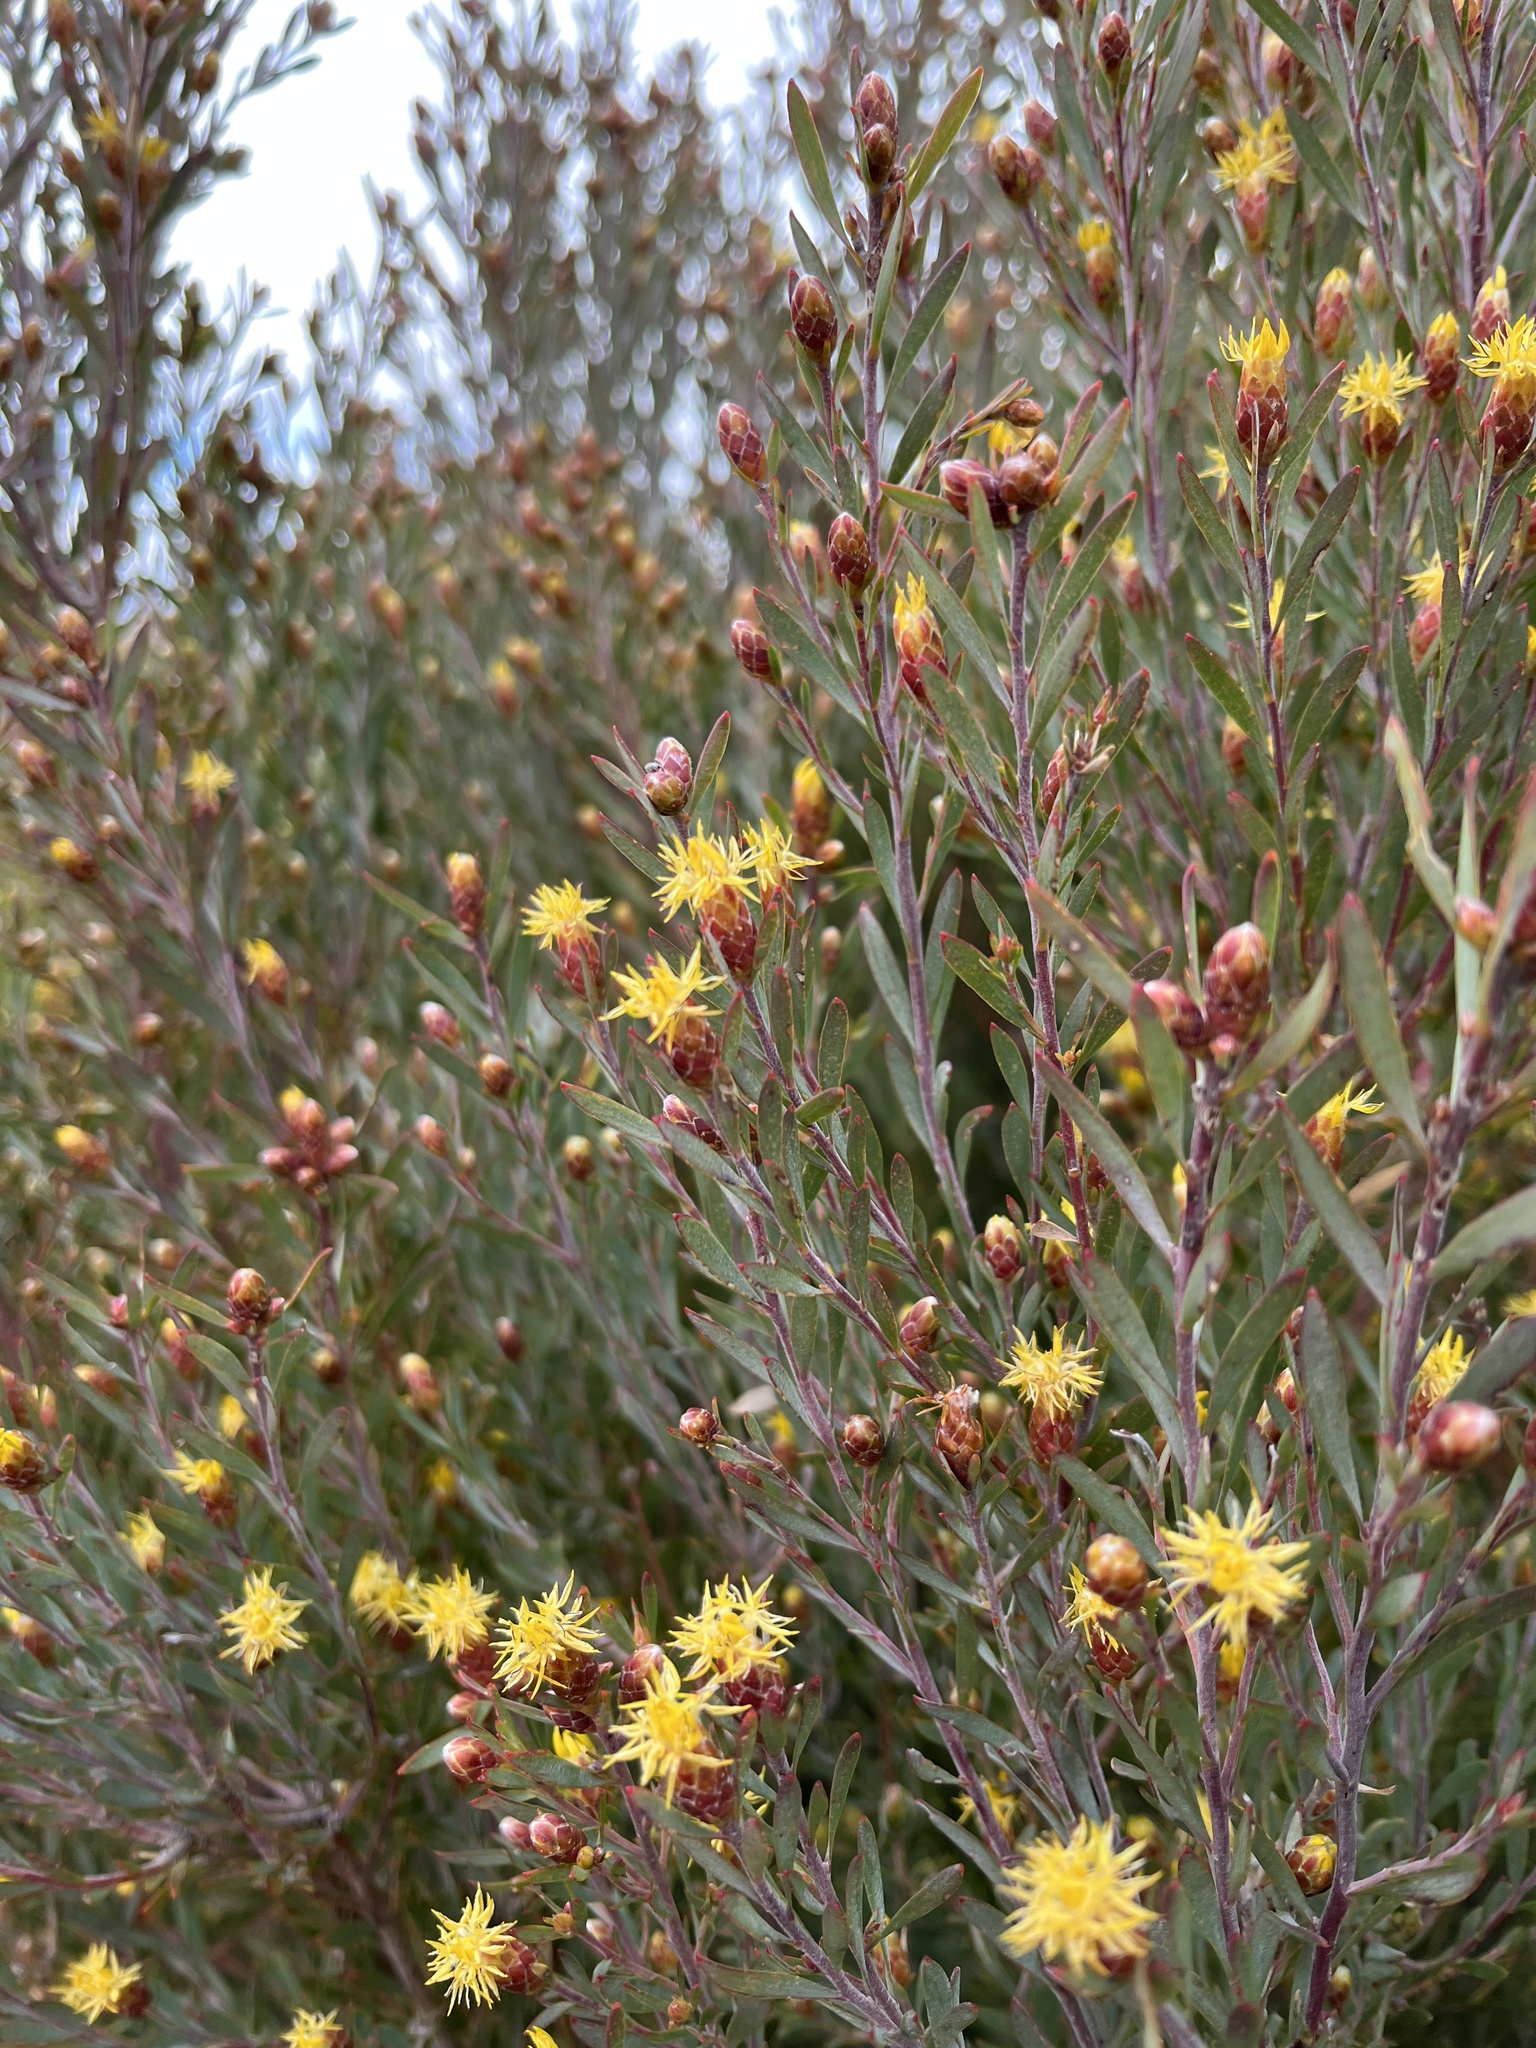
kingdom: Plantae
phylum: Tracheophyta
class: Magnoliopsida
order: Proteales
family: Proteaceae
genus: Leucadendron
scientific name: Leucadendron rubrum
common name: Spinning top
